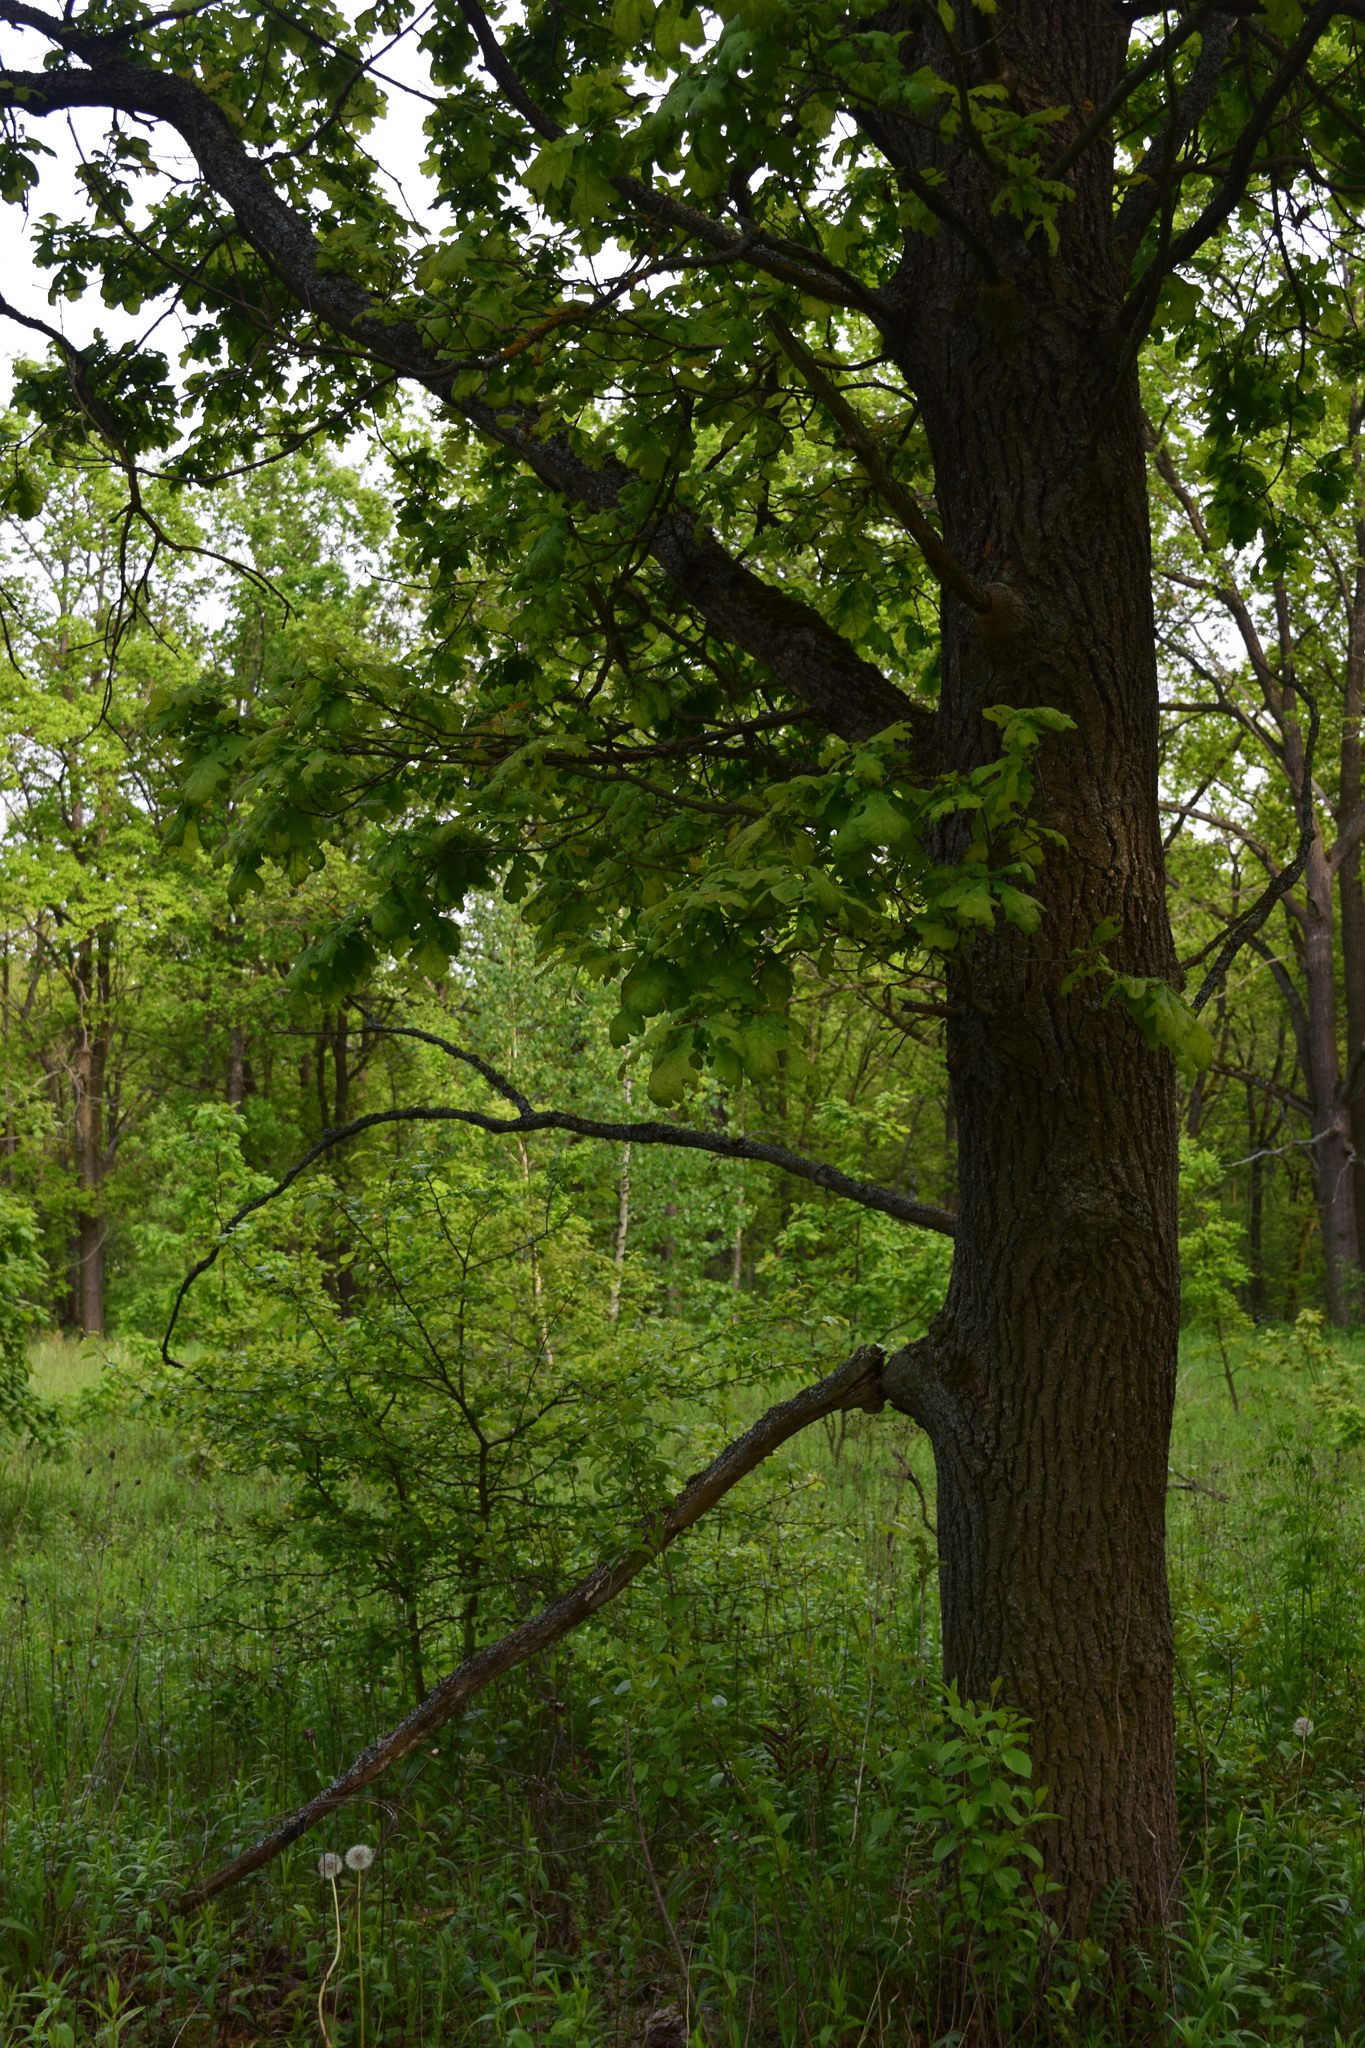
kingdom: Plantae
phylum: Tracheophyta
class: Magnoliopsida
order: Fagales
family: Fagaceae
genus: Quercus
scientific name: Quercus robur
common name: Pedunculate oak
